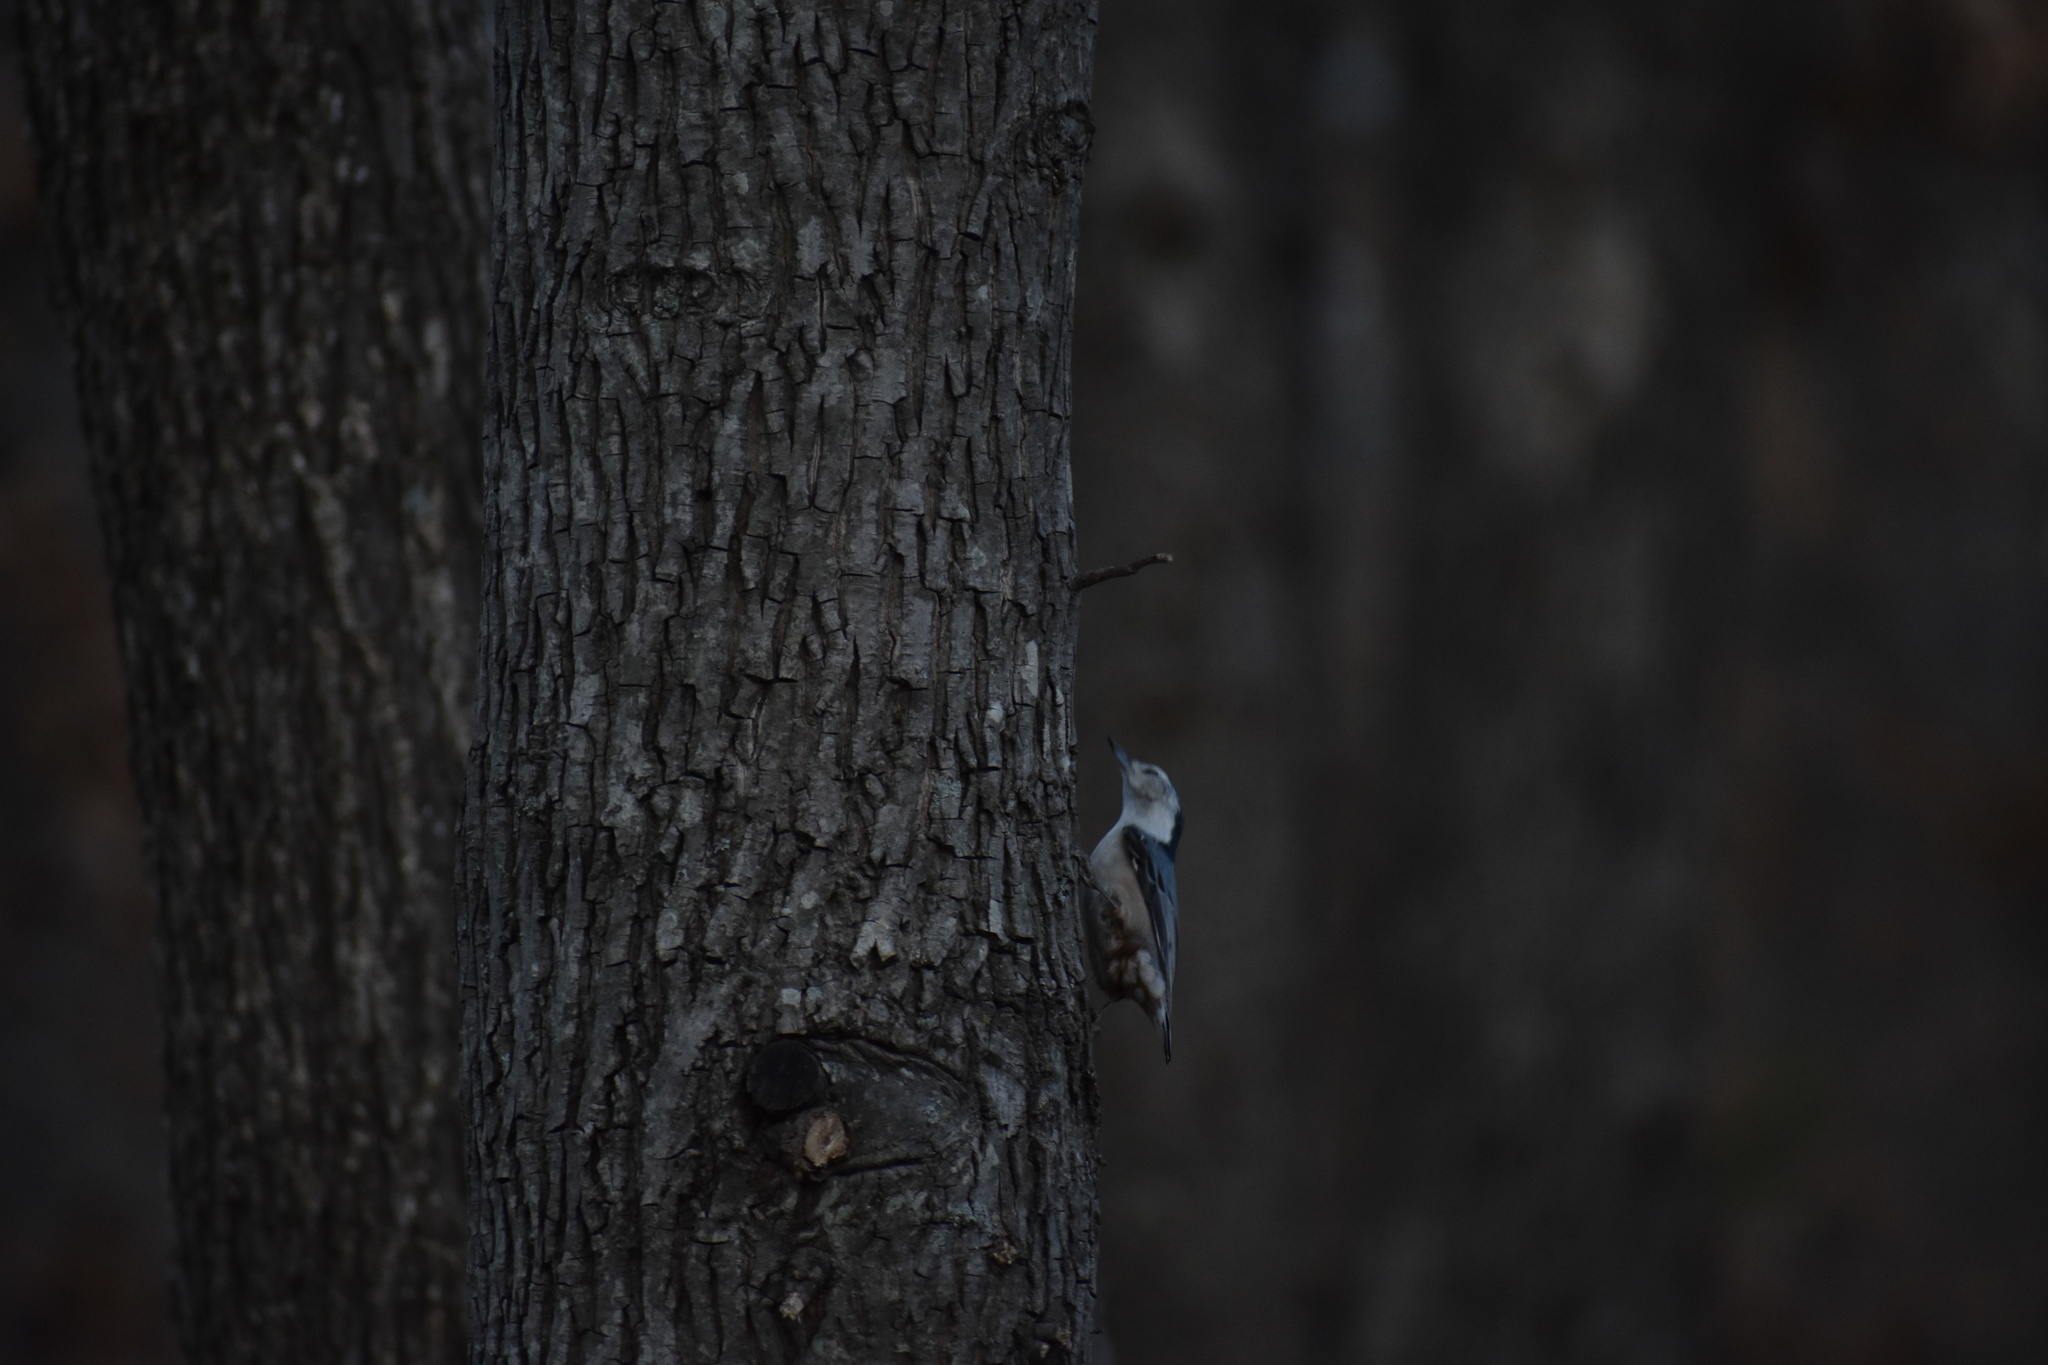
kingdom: Animalia
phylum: Chordata
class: Aves
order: Passeriformes
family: Sittidae
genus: Sitta
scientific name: Sitta carolinensis
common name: White-breasted nuthatch
